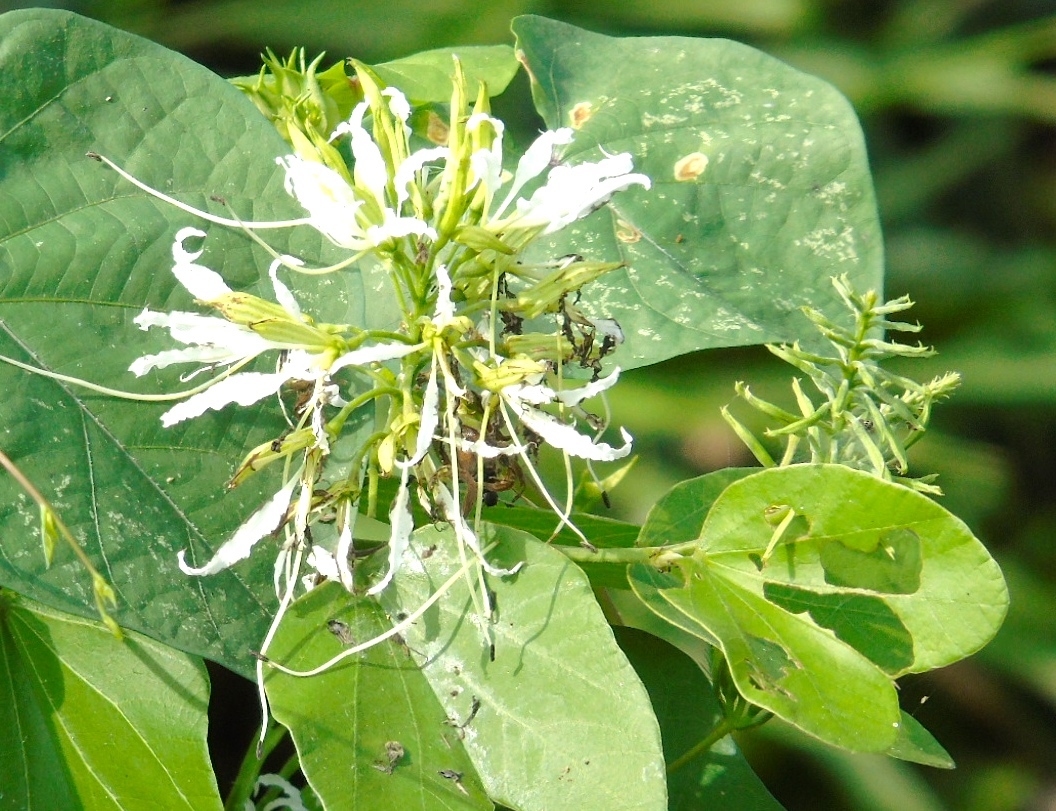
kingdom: Plantae
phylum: Tracheophyta
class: Magnoliopsida
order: Fabales
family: Fabaceae
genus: Bauhinia
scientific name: Bauhinia divaricata
